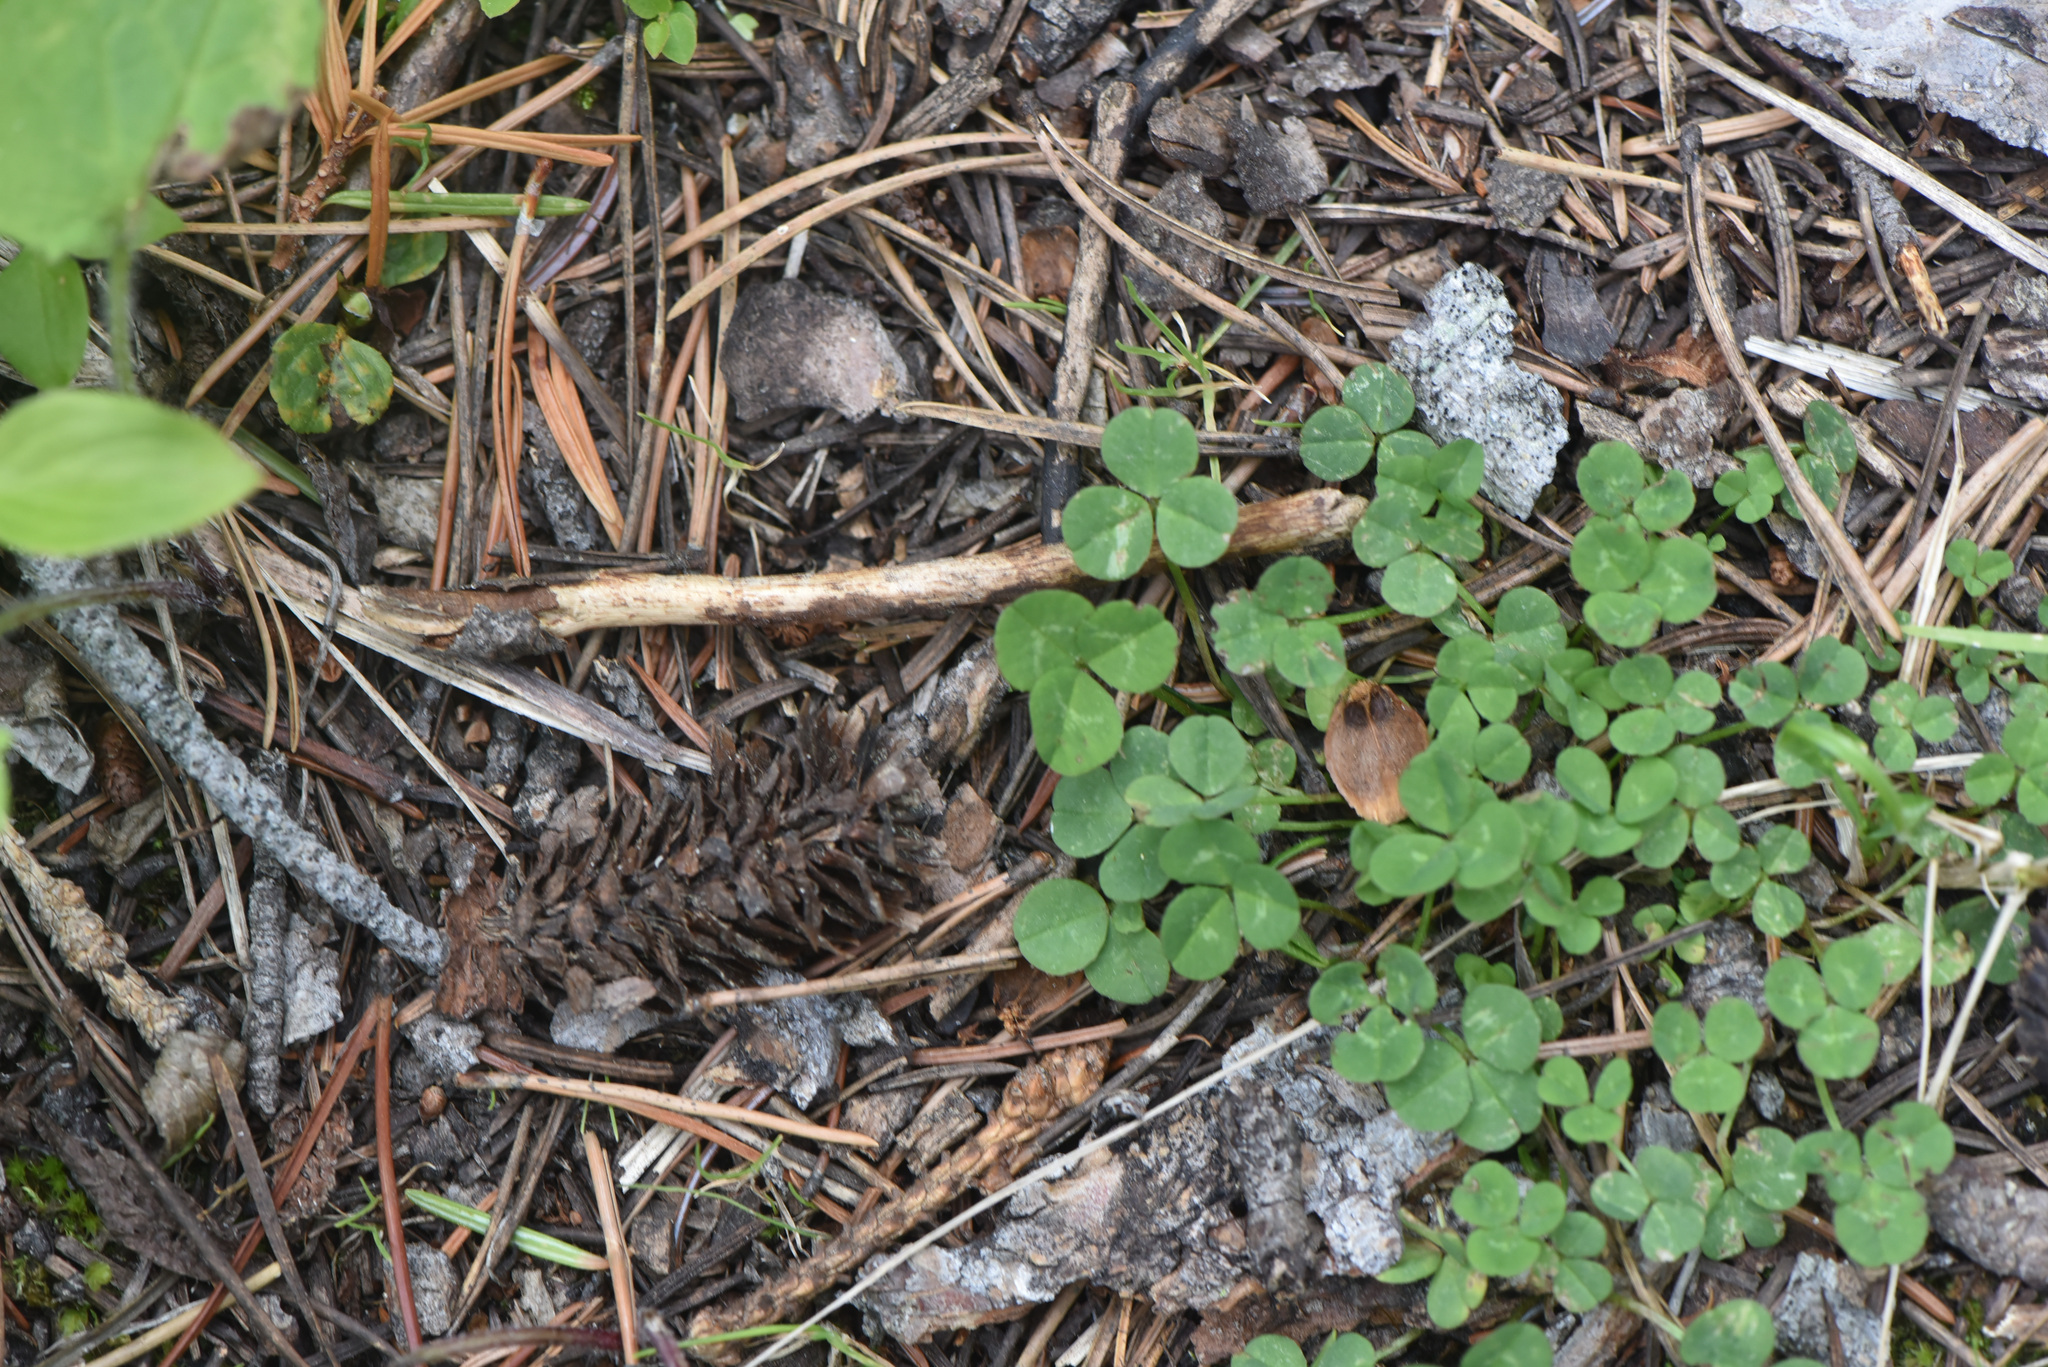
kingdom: Plantae
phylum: Tracheophyta
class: Magnoliopsida
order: Fabales
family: Fabaceae
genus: Trifolium
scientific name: Trifolium repens
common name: White clover
